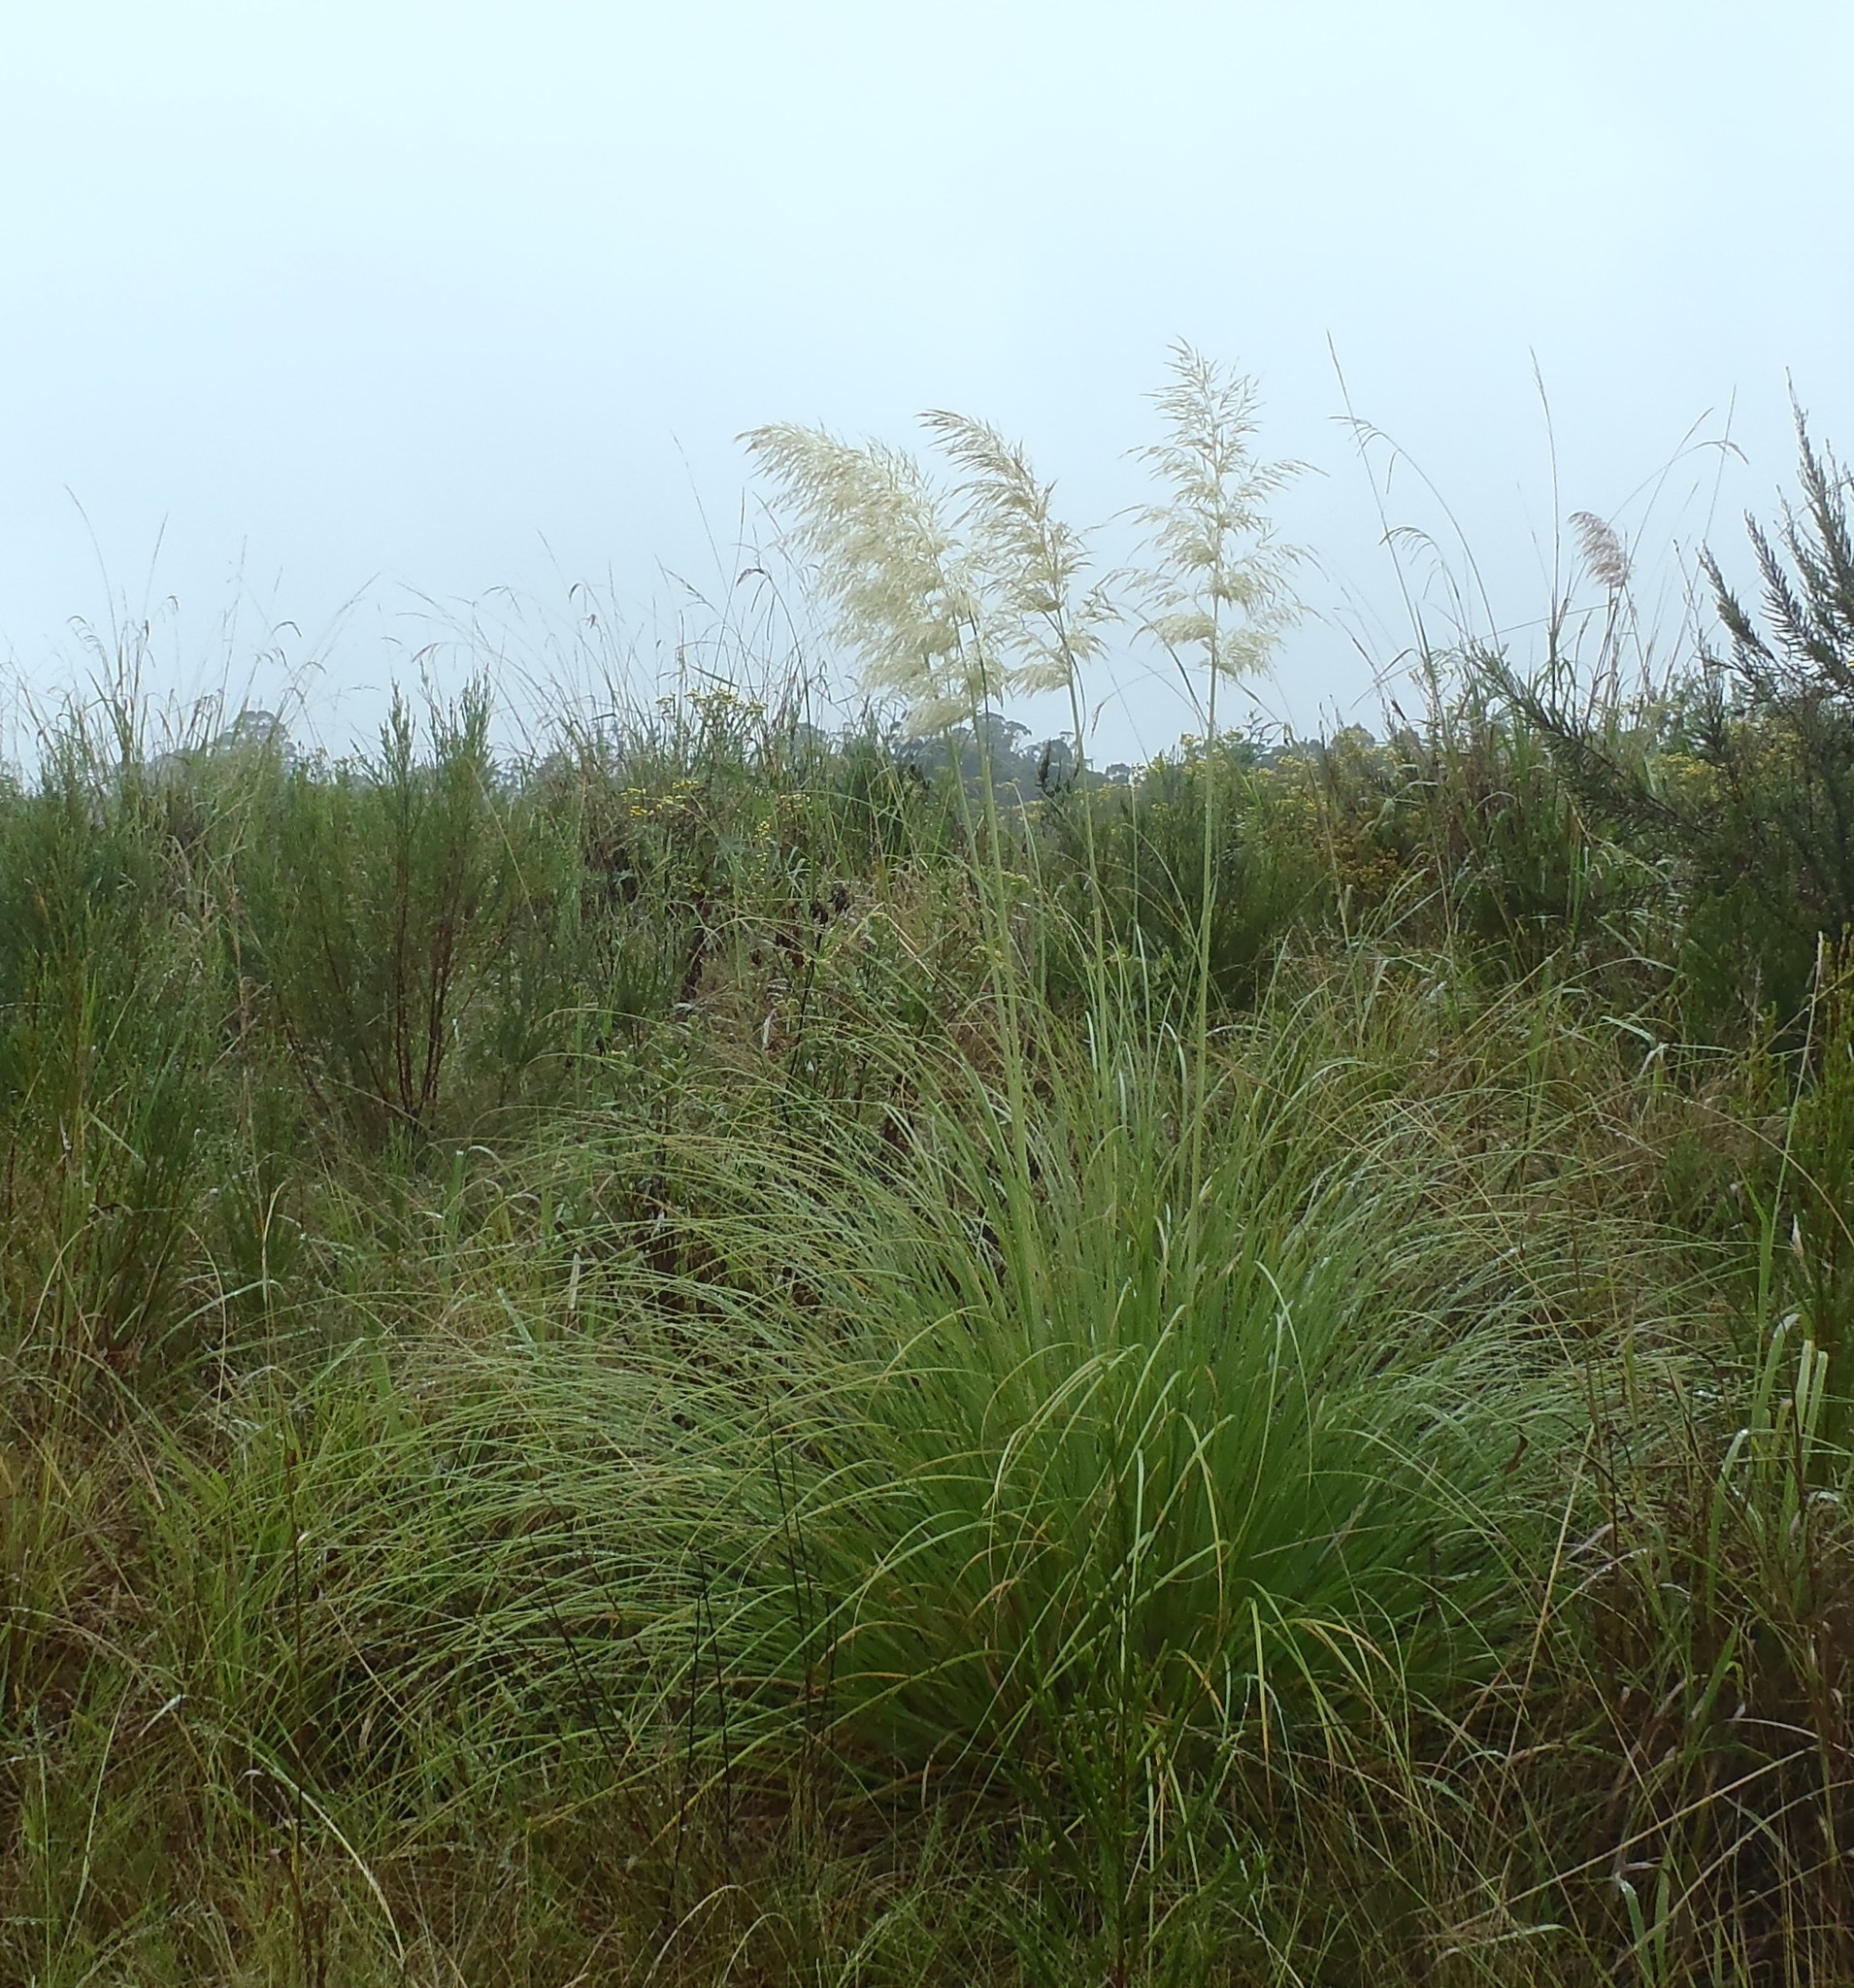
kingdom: Plantae
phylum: Tracheophyta
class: Liliopsida
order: Poales
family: Poaceae
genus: Cortaderia
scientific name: Cortaderia selloana
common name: Uruguayan pampas grass
